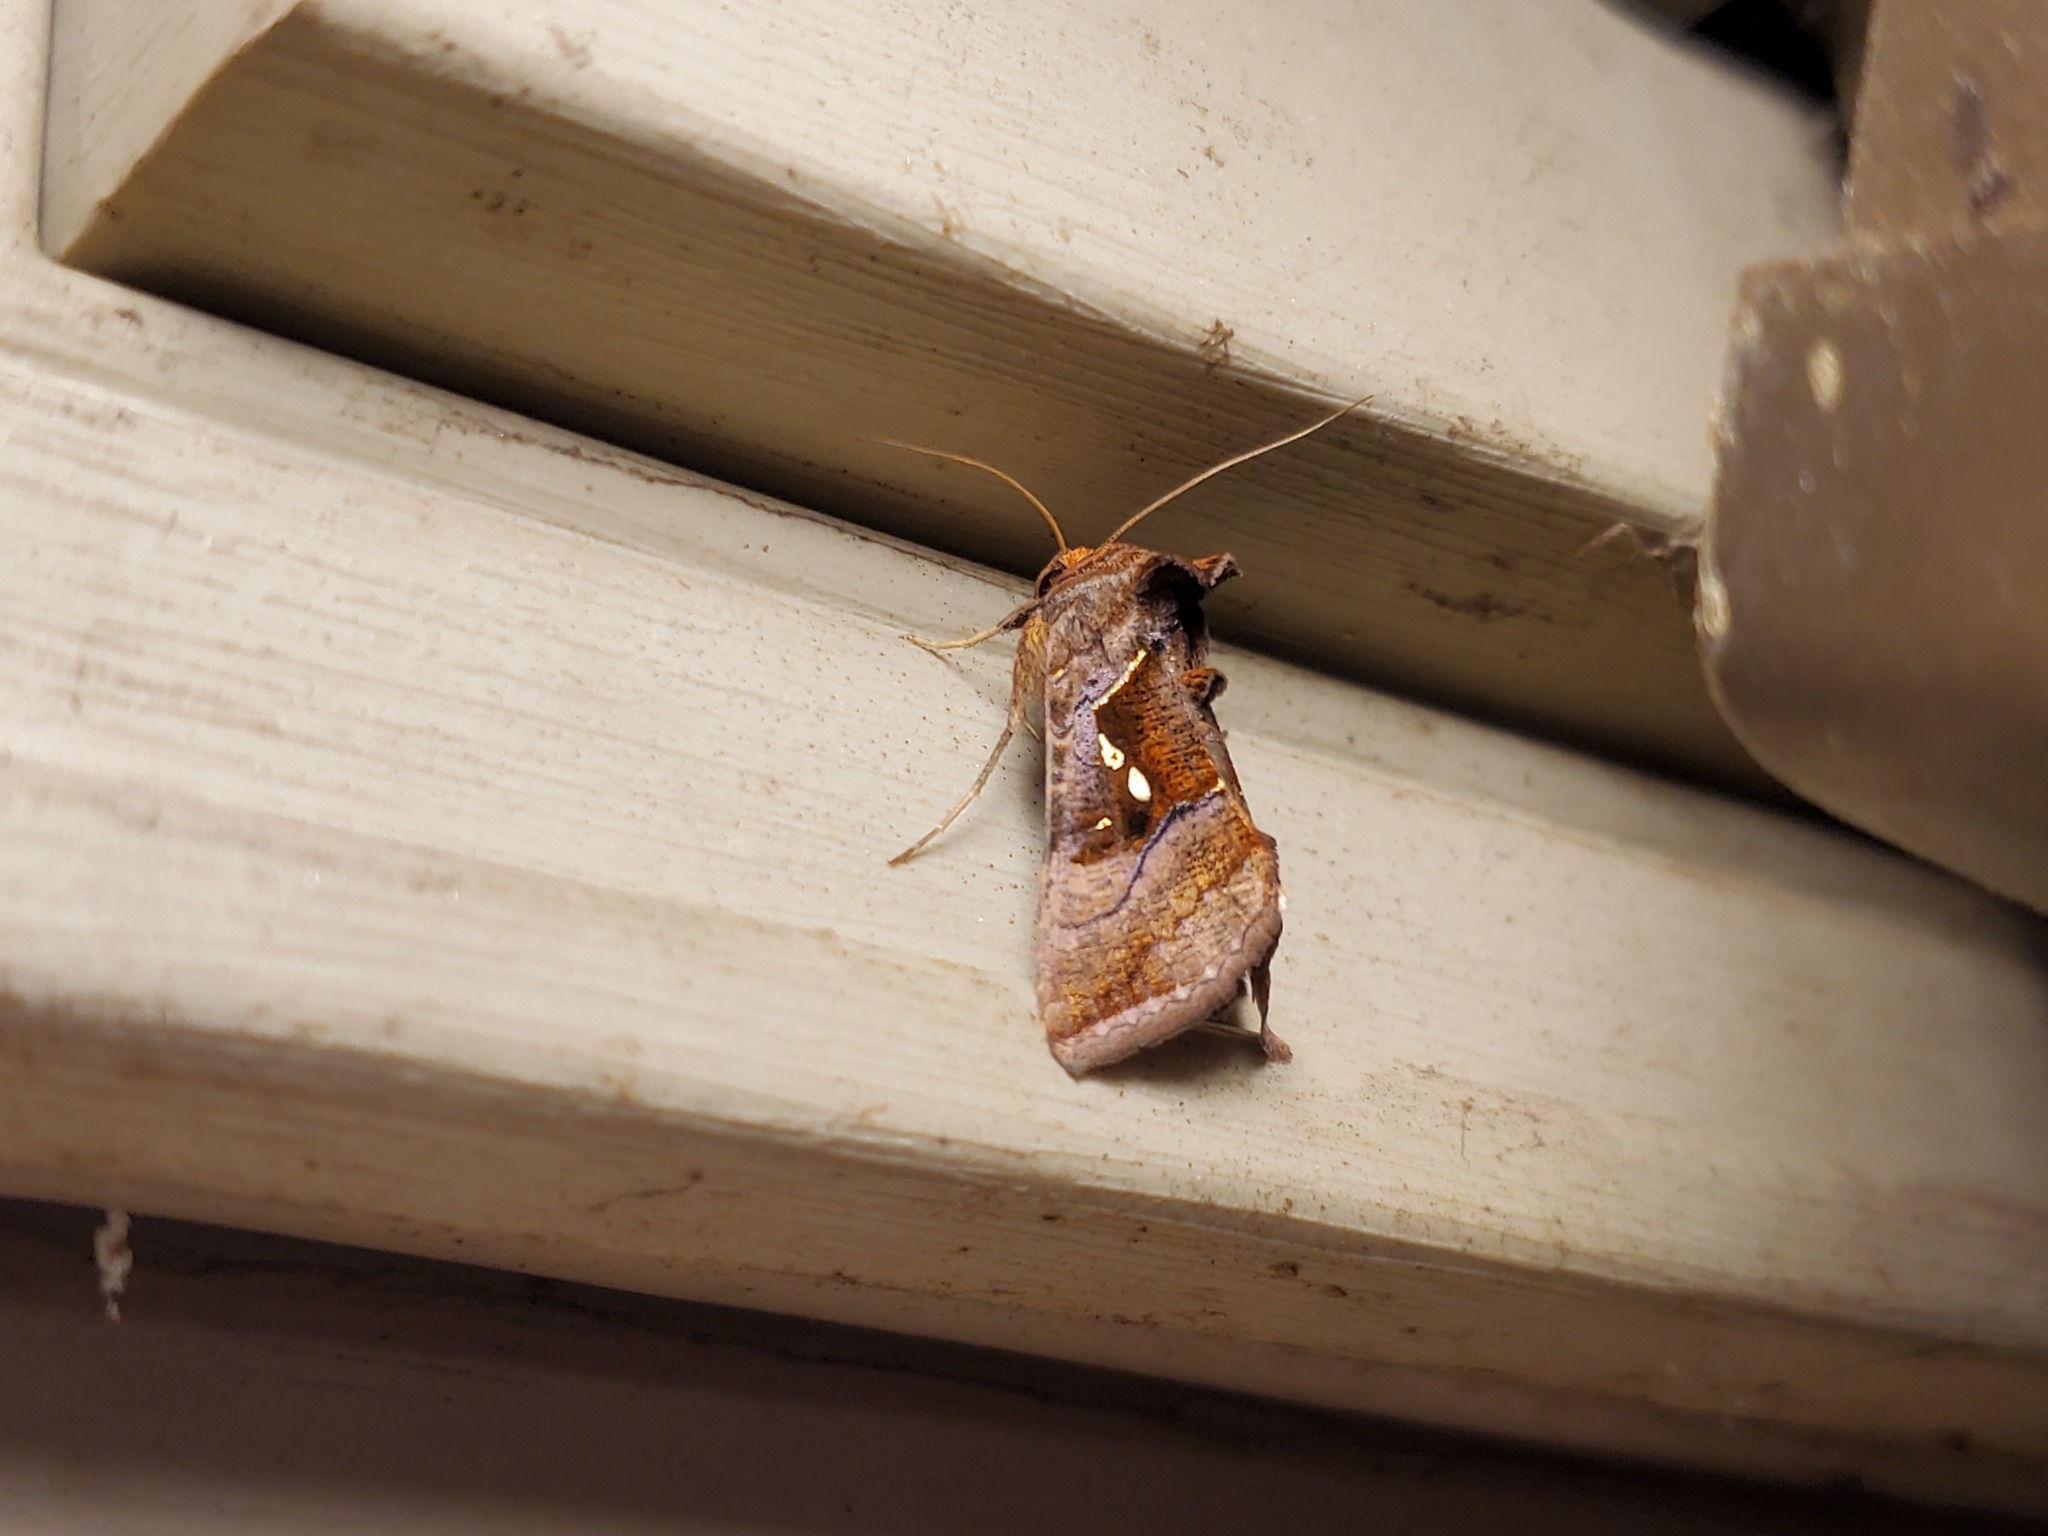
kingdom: Animalia
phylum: Arthropoda
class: Insecta
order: Lepidoptera
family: Noctuidae
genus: Enigmogramma
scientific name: Enigmogramma basigera
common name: Pink-washed looper moth
